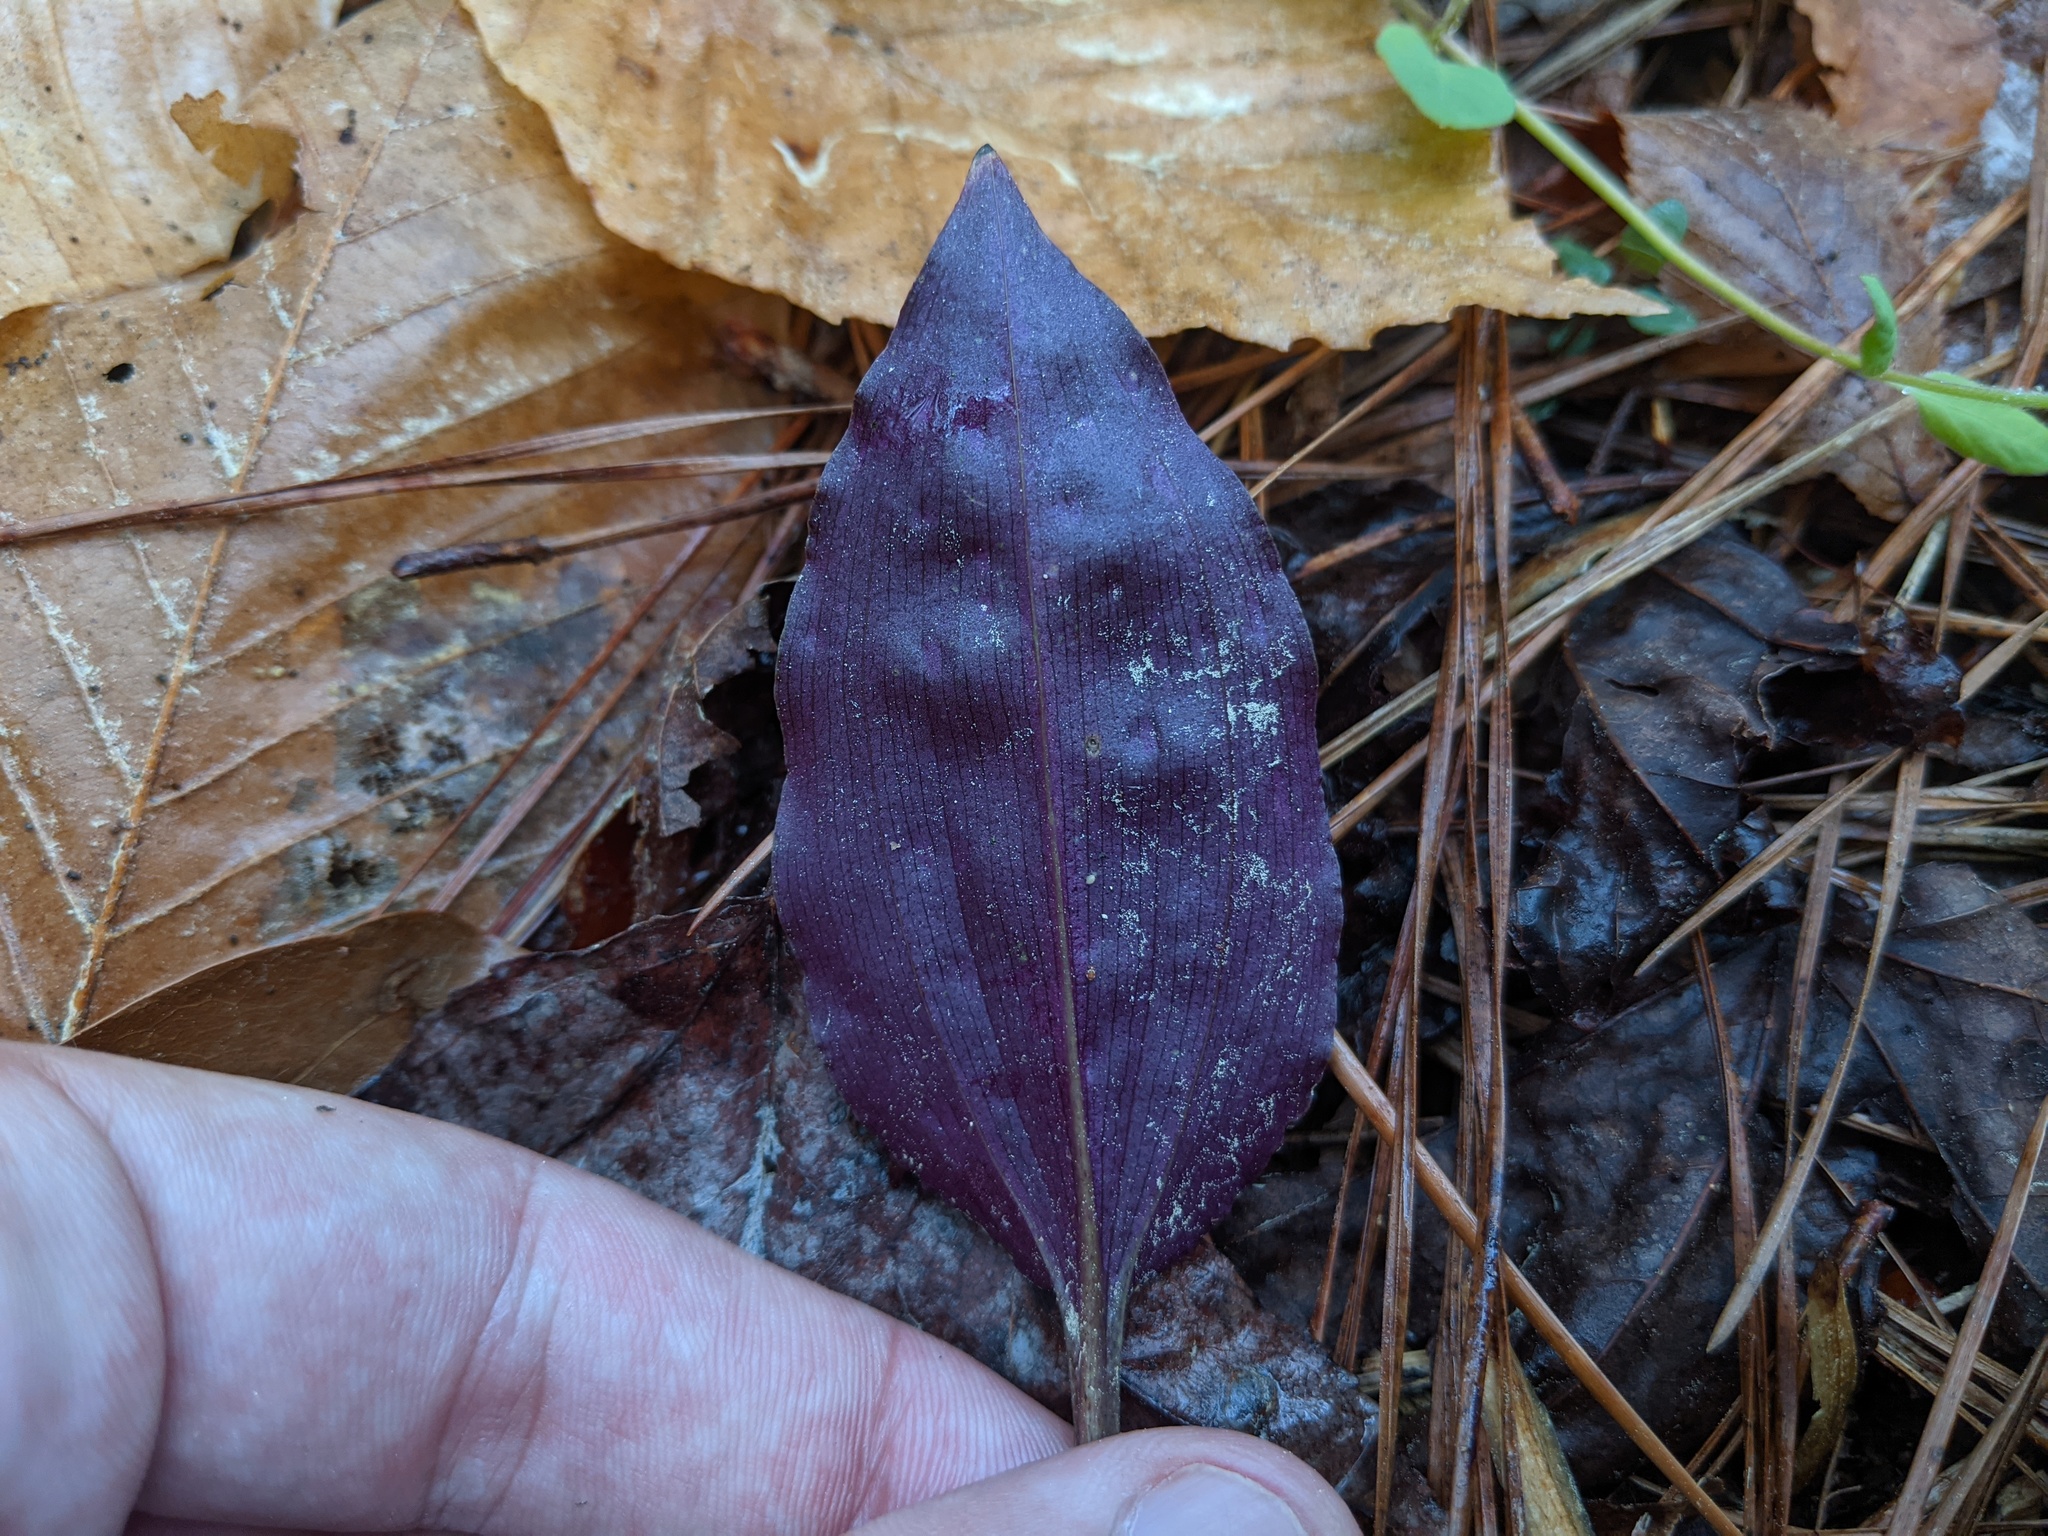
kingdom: Plantae
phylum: Tracheophyta
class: Liliopsida
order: Asparagales
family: Orchidaceae
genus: Tipularia
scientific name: Tipularia discolor
